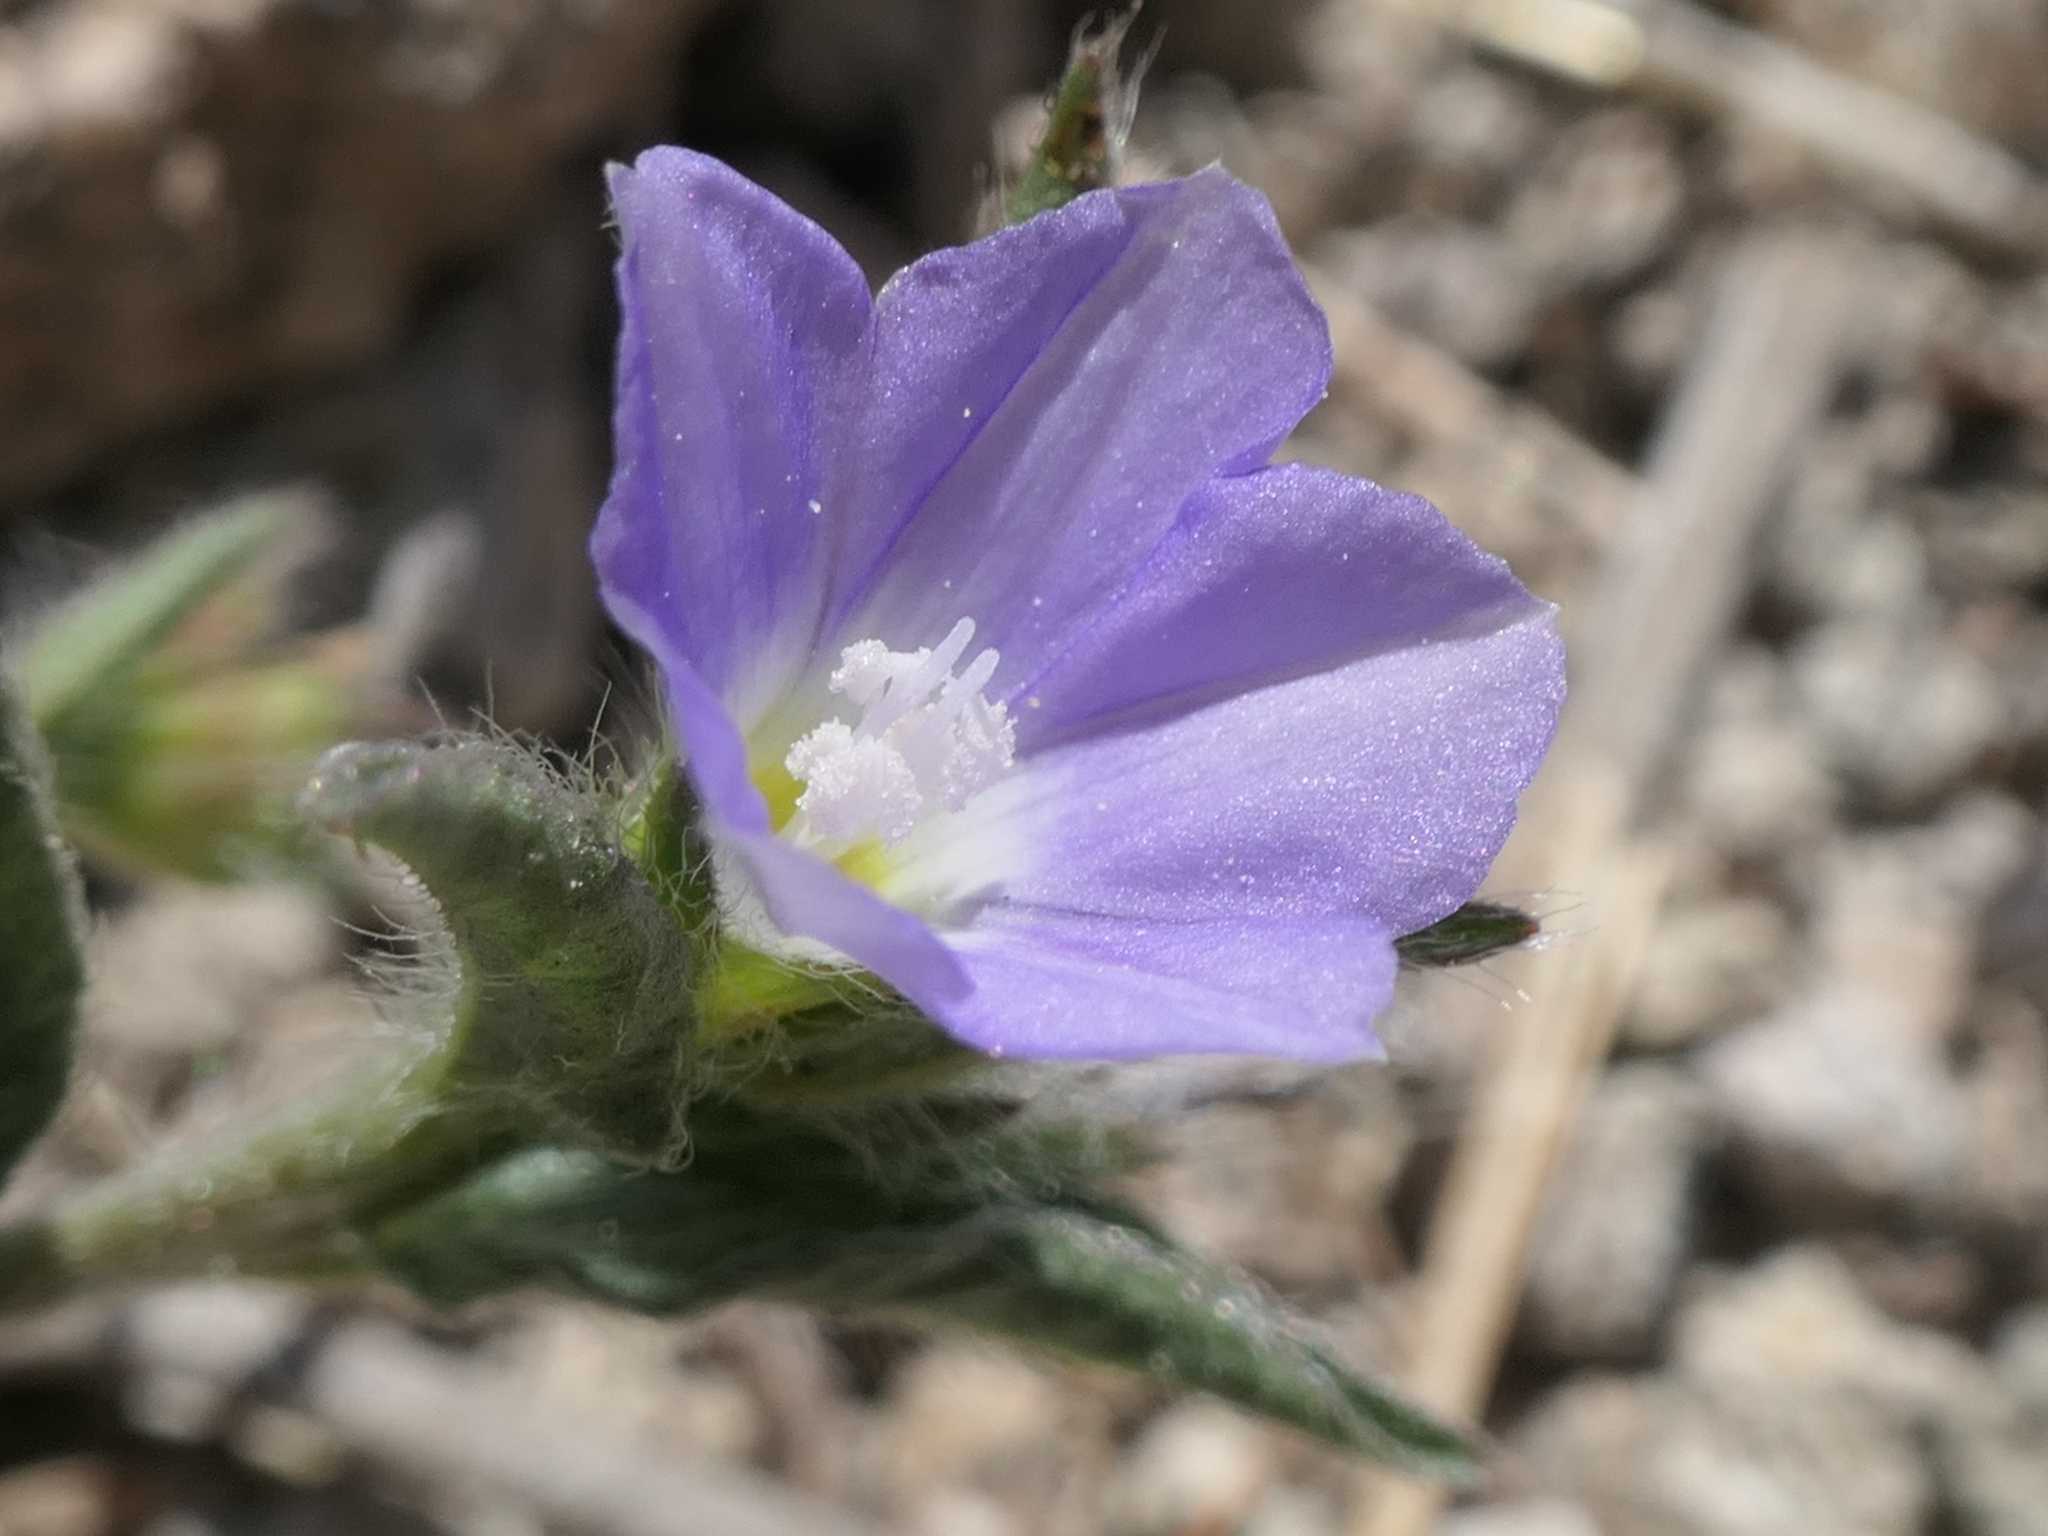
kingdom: Plantae
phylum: Tracheophyta
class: Magnoliopsida
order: Solanales
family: Convolvulaceae
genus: Convolvulus
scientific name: Convolvulus siculus
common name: Small blue-convolvulus
